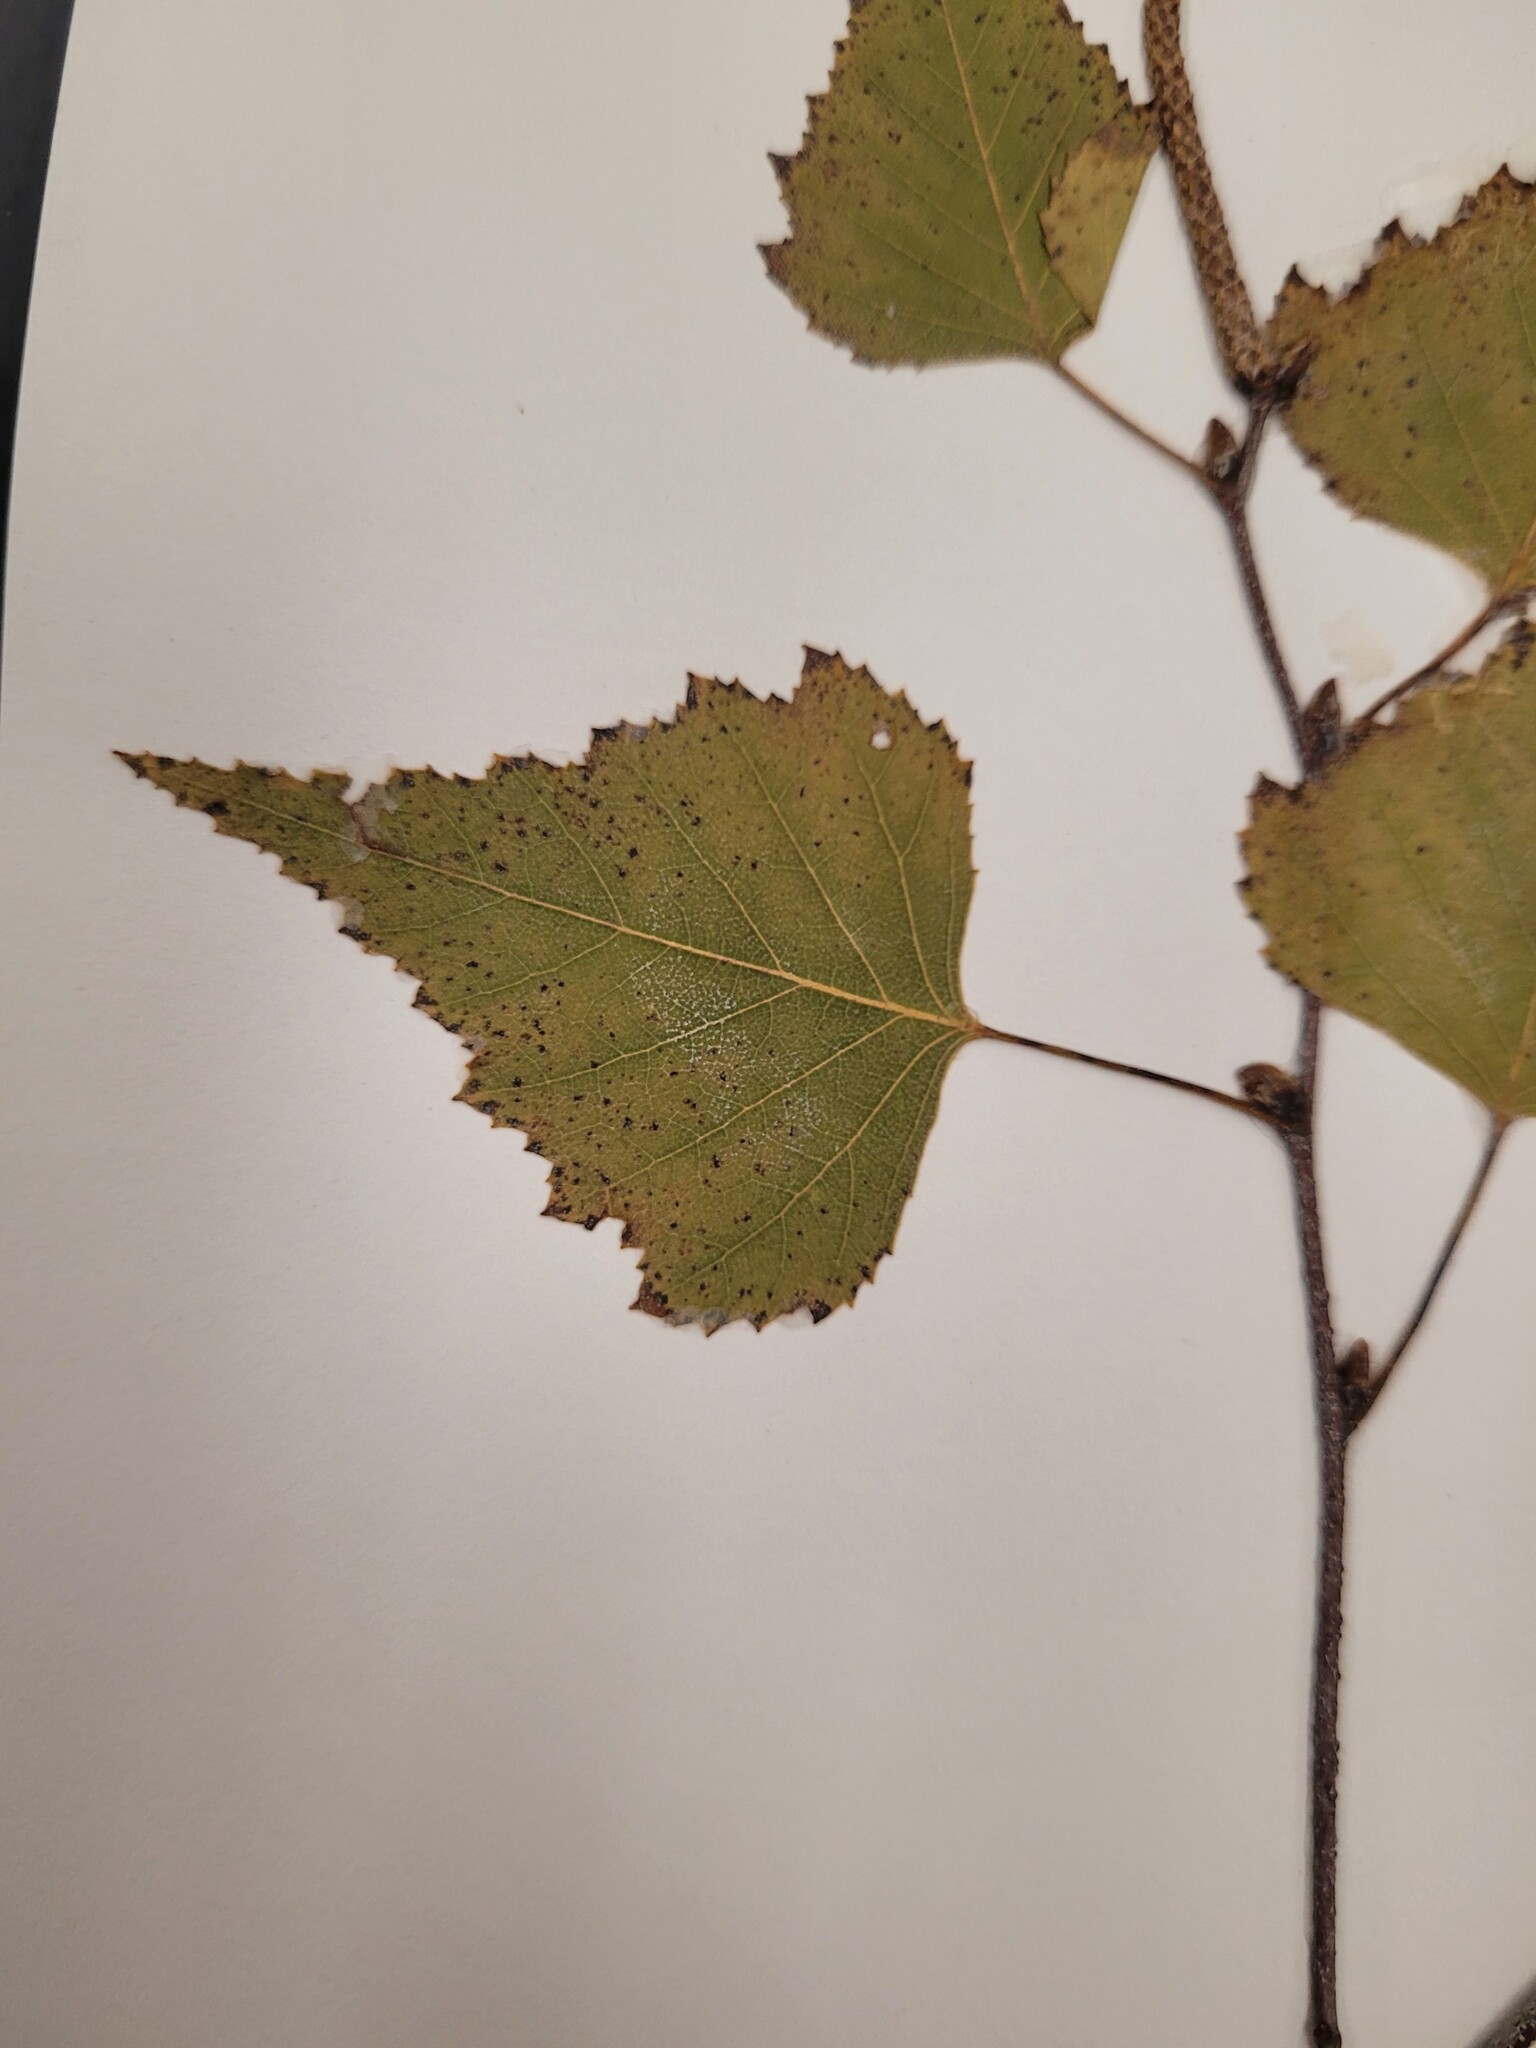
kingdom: Plantae
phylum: Tracheophyta
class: Magnoliopsida
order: Fagales
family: Betulaceae
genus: Betula
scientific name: Betula populifolia
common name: Fire birch
